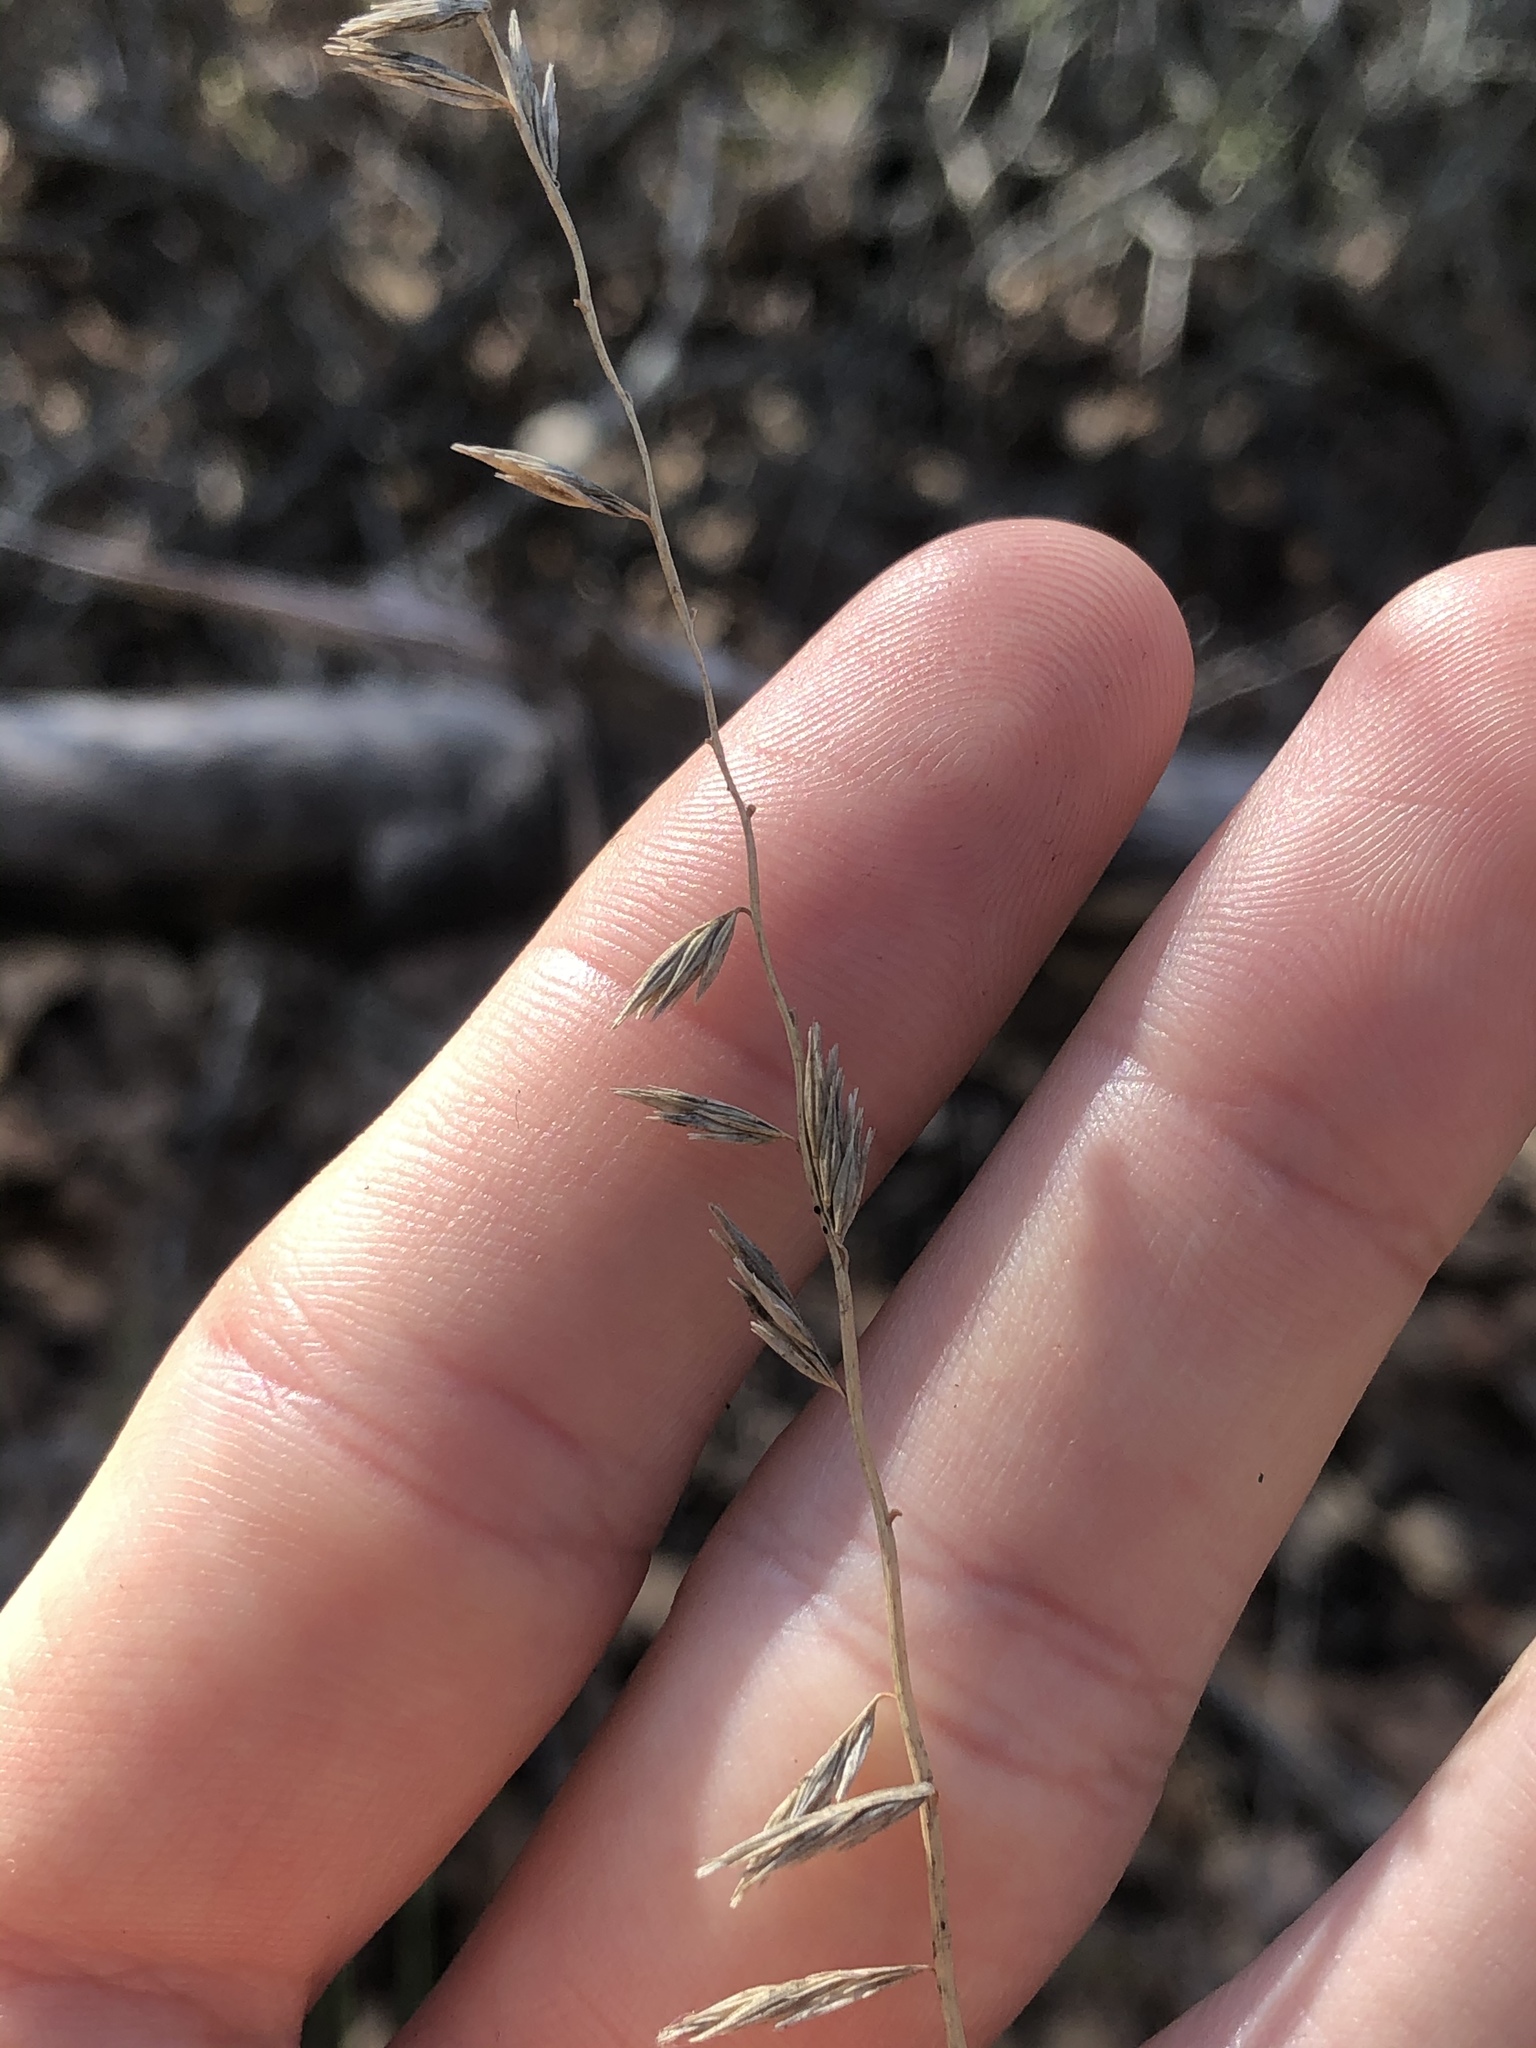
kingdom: Plantae
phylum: Tracheophyta
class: Liliopsida
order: Poales
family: Poaceae
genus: Bouteloua
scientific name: Bouteloua curtipendula
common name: Side-oats grama
